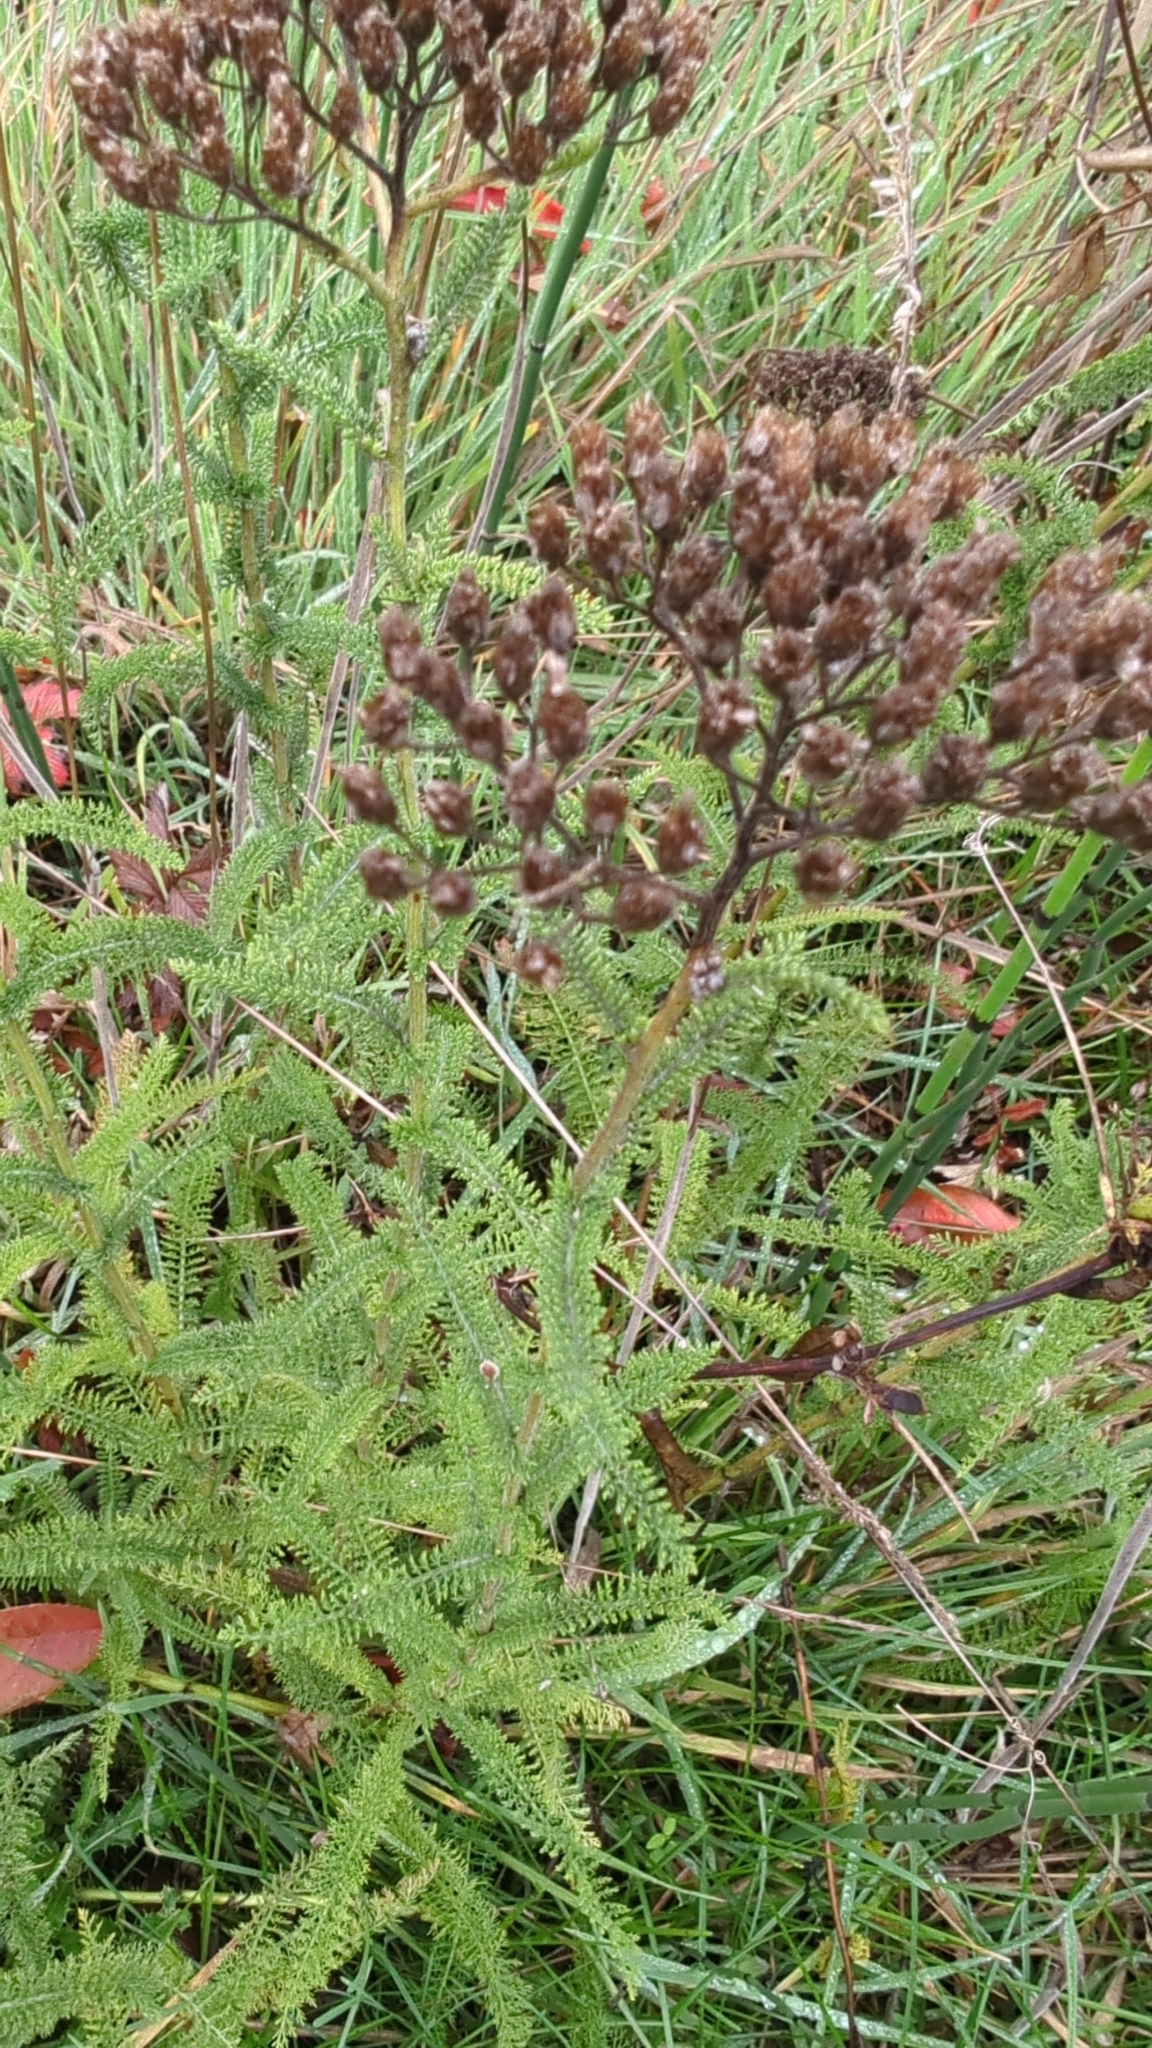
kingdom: Plantae
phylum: Tracheophyta
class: Magnoliopsida
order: Asterales
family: Asteraceae
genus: Achillea
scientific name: Achillea millefolium
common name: Yarrow
